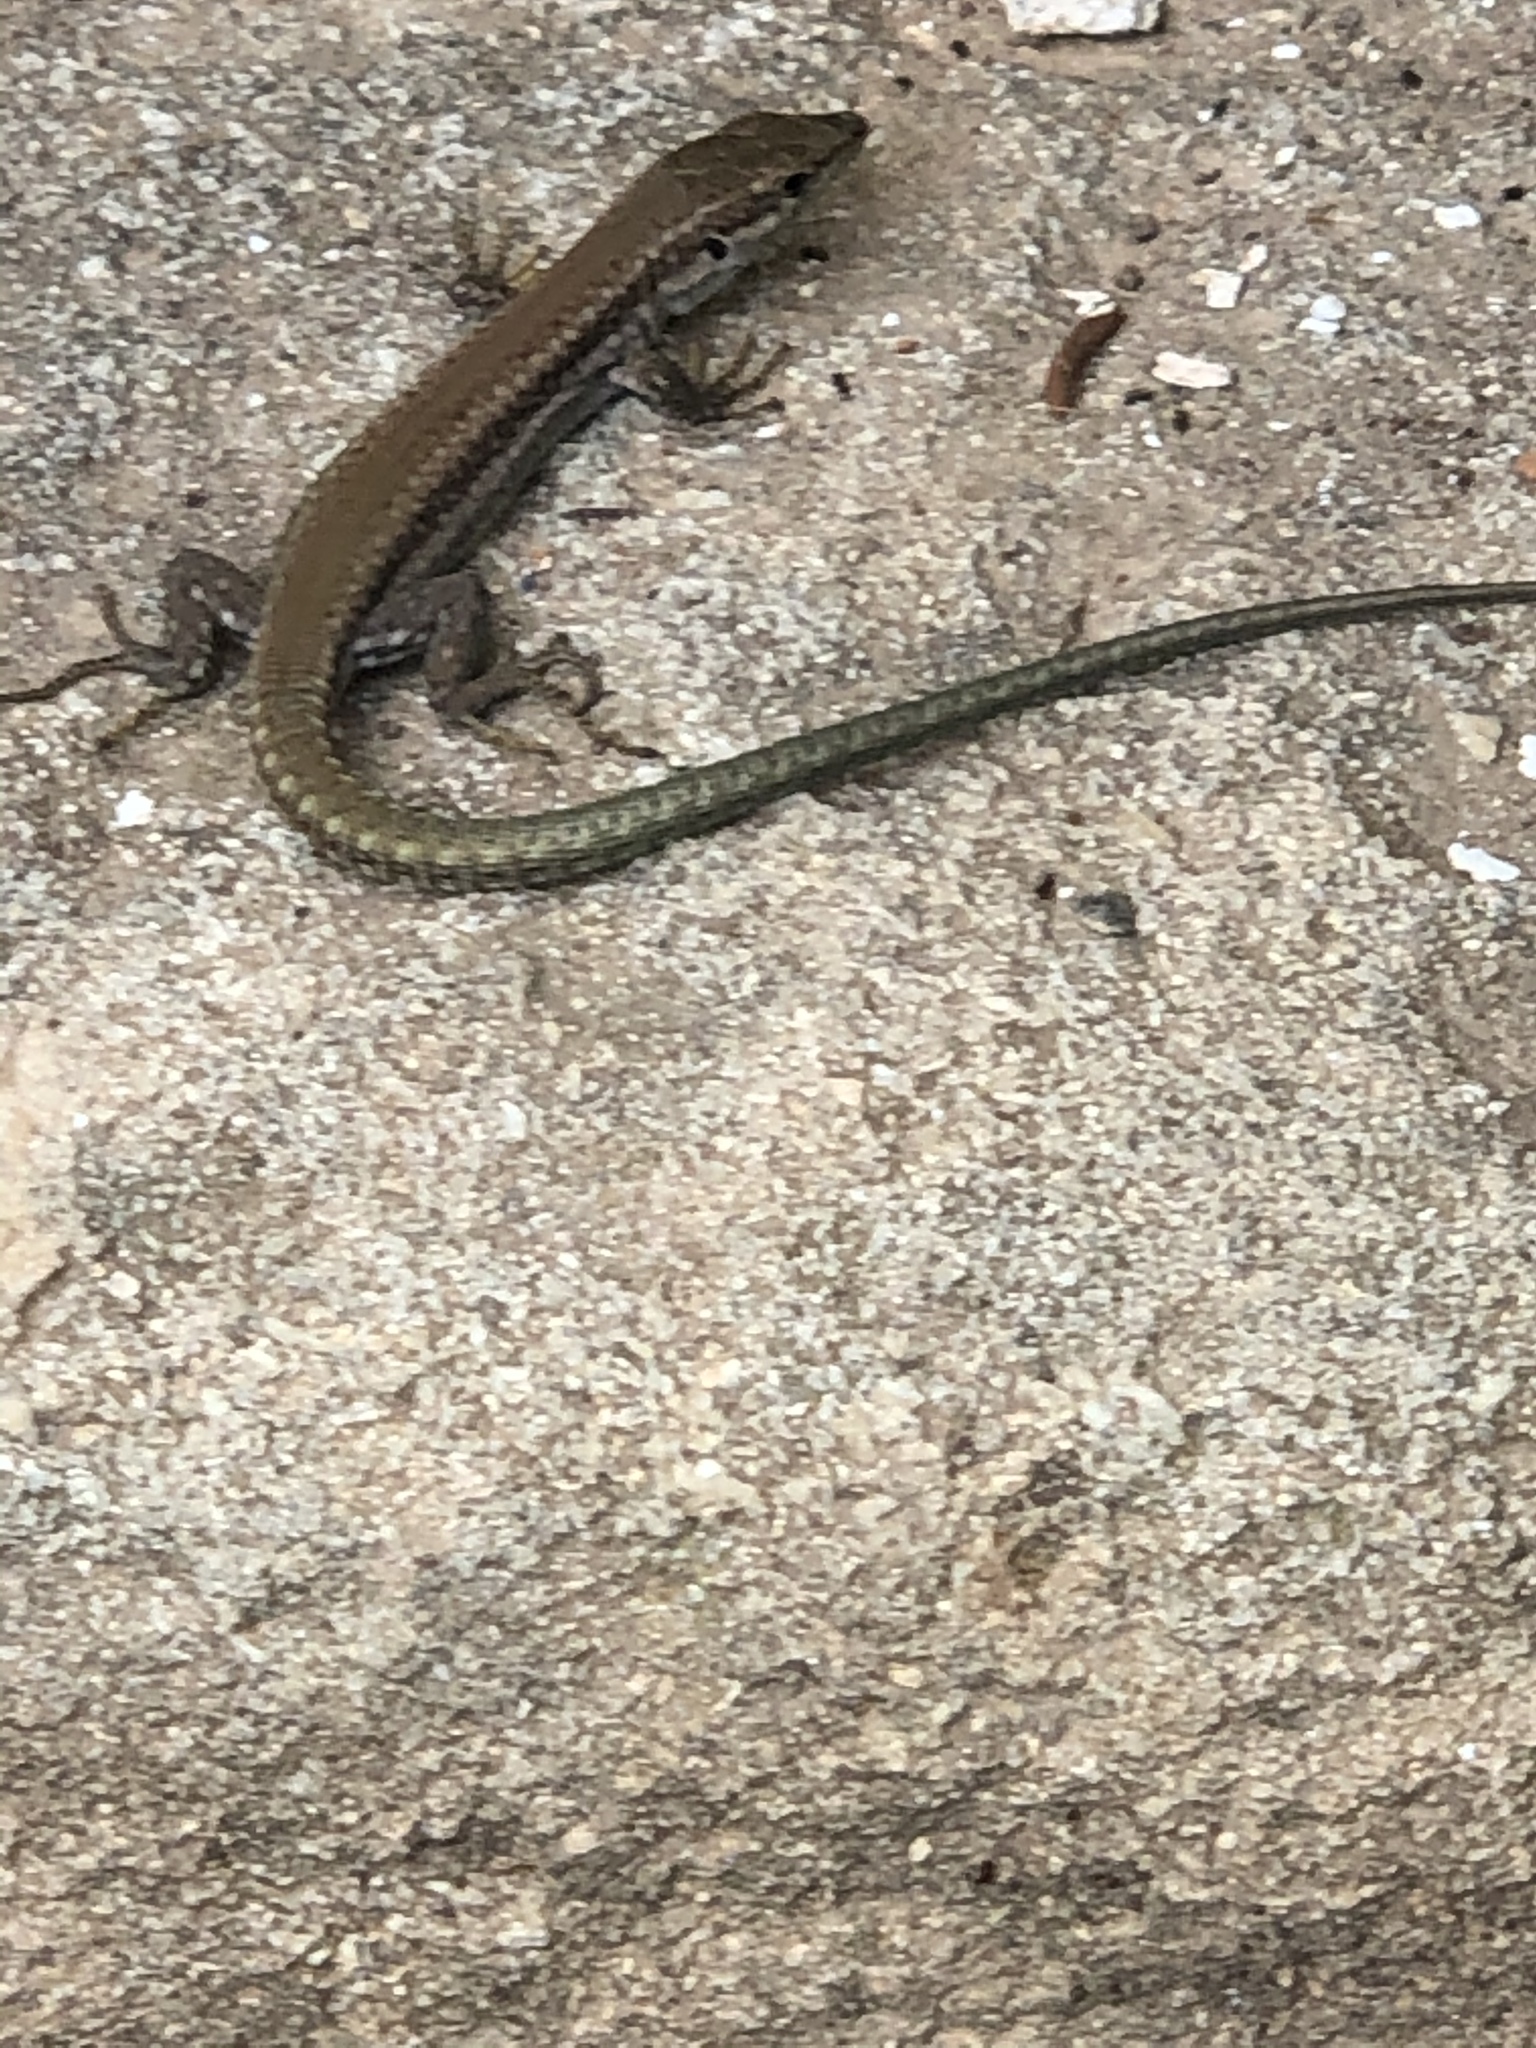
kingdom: Animalia
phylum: Chordata
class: Squamata
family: Lacertidae
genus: Podarcis
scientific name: Podarcis vaucheri
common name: Vaucher's wall lizard
